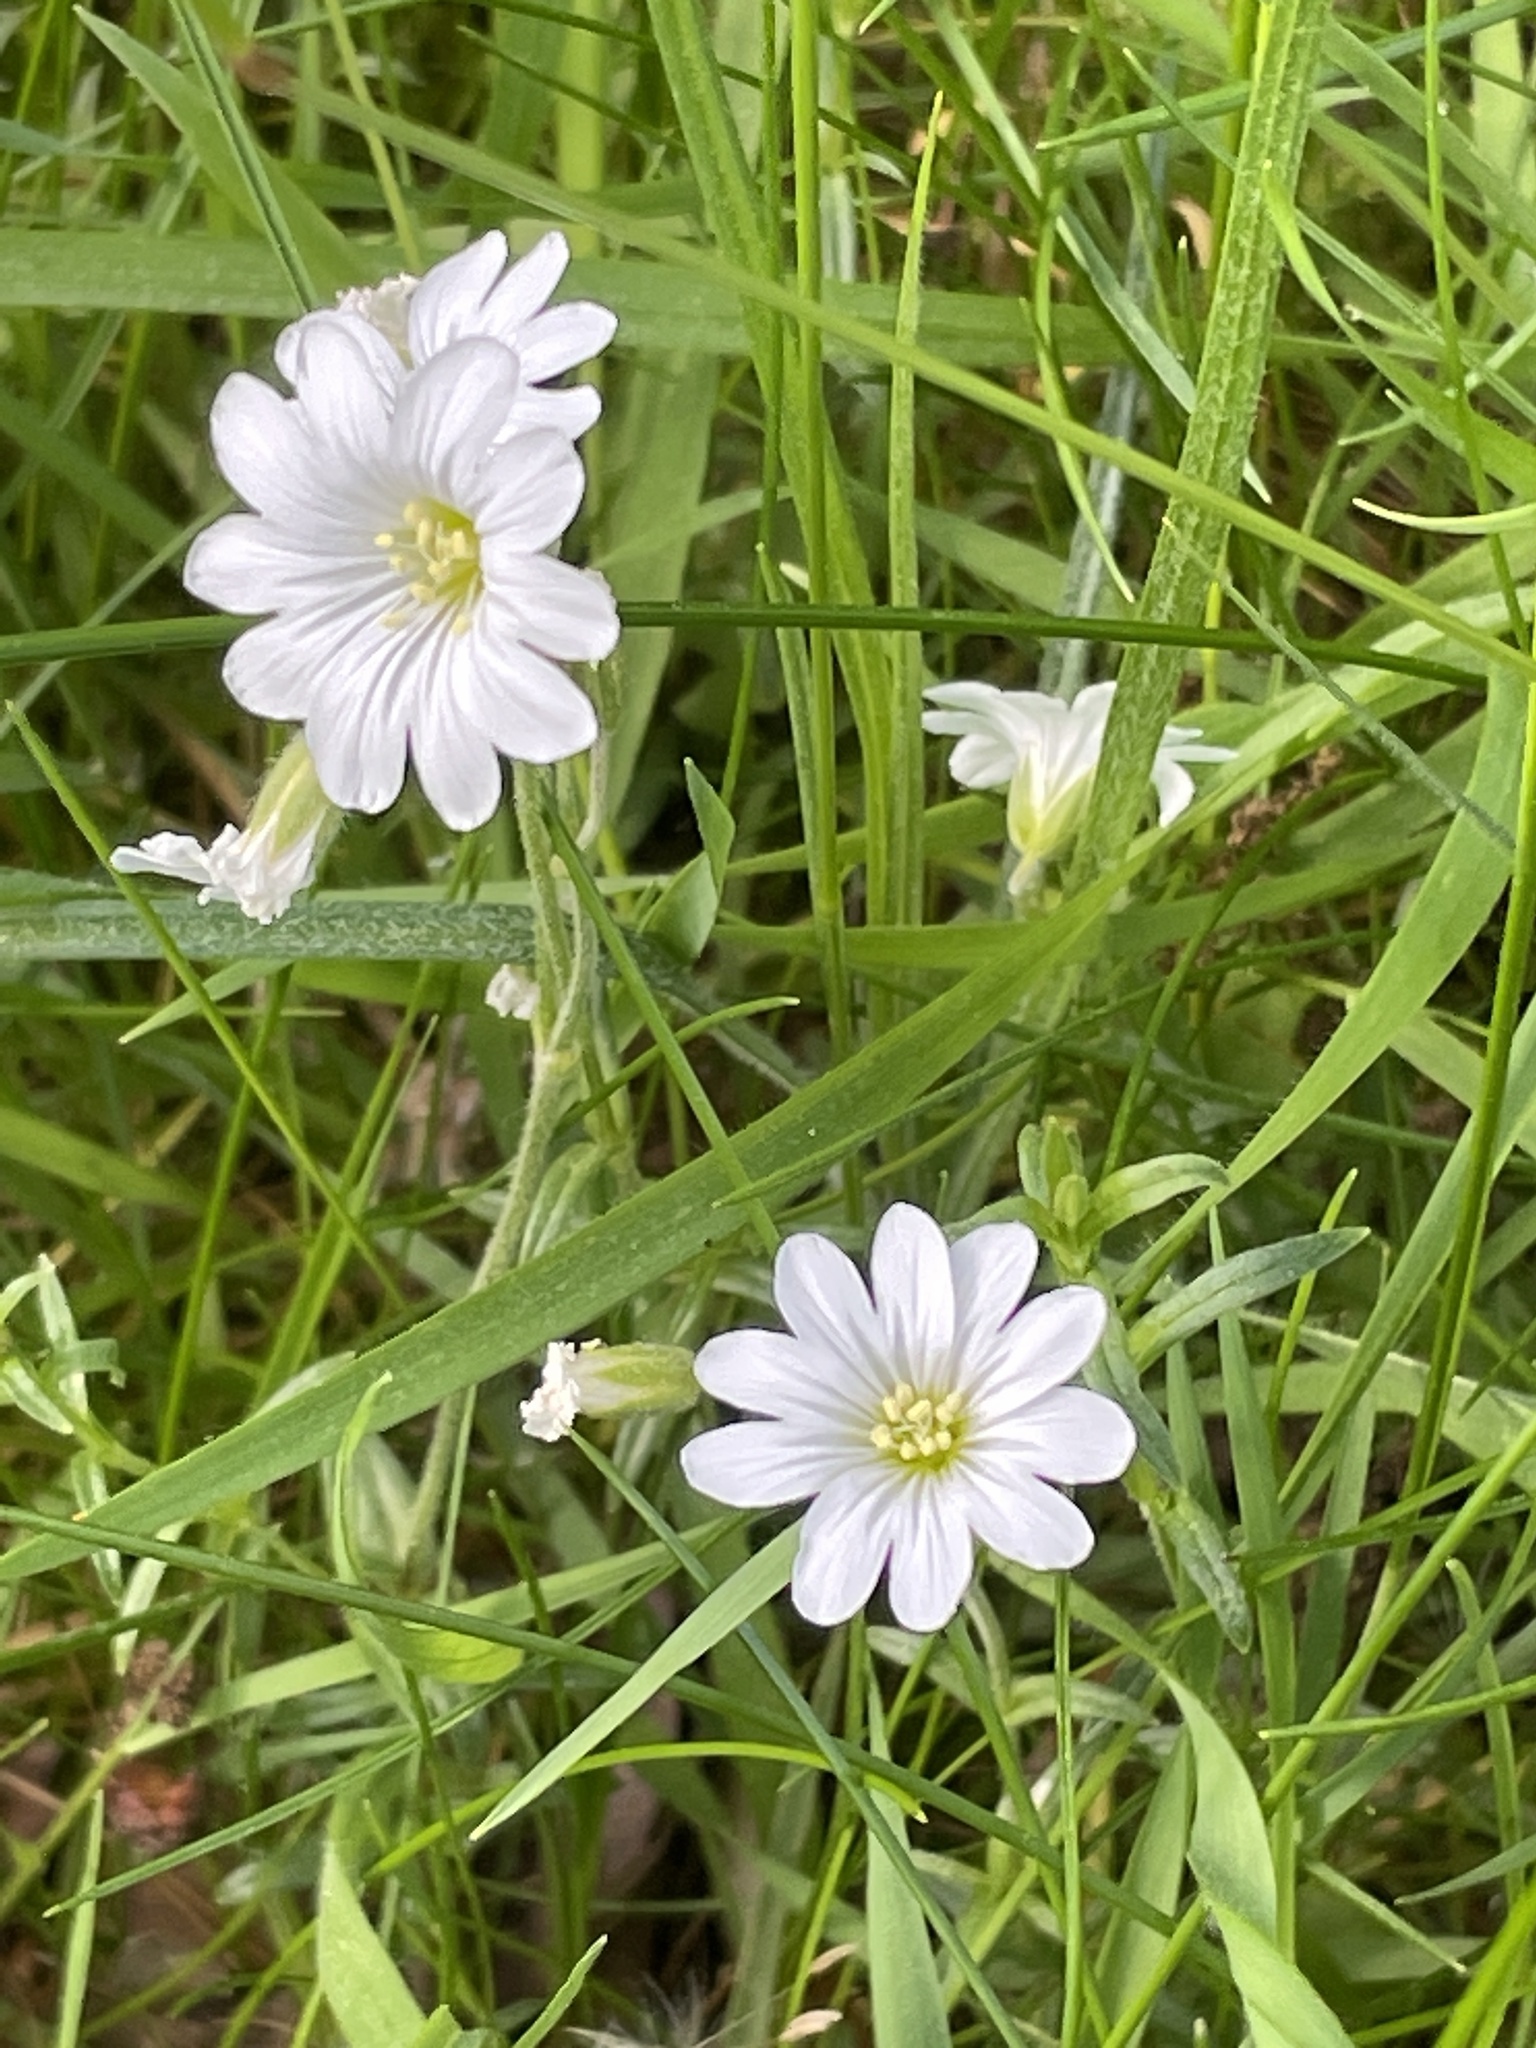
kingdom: Plantae
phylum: Tracheophyta
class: Magnoliopsida
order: Caryophyllales
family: Caryophyllaceae
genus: Cerastium
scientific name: Cerastium arvense
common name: Field mouse-ear
